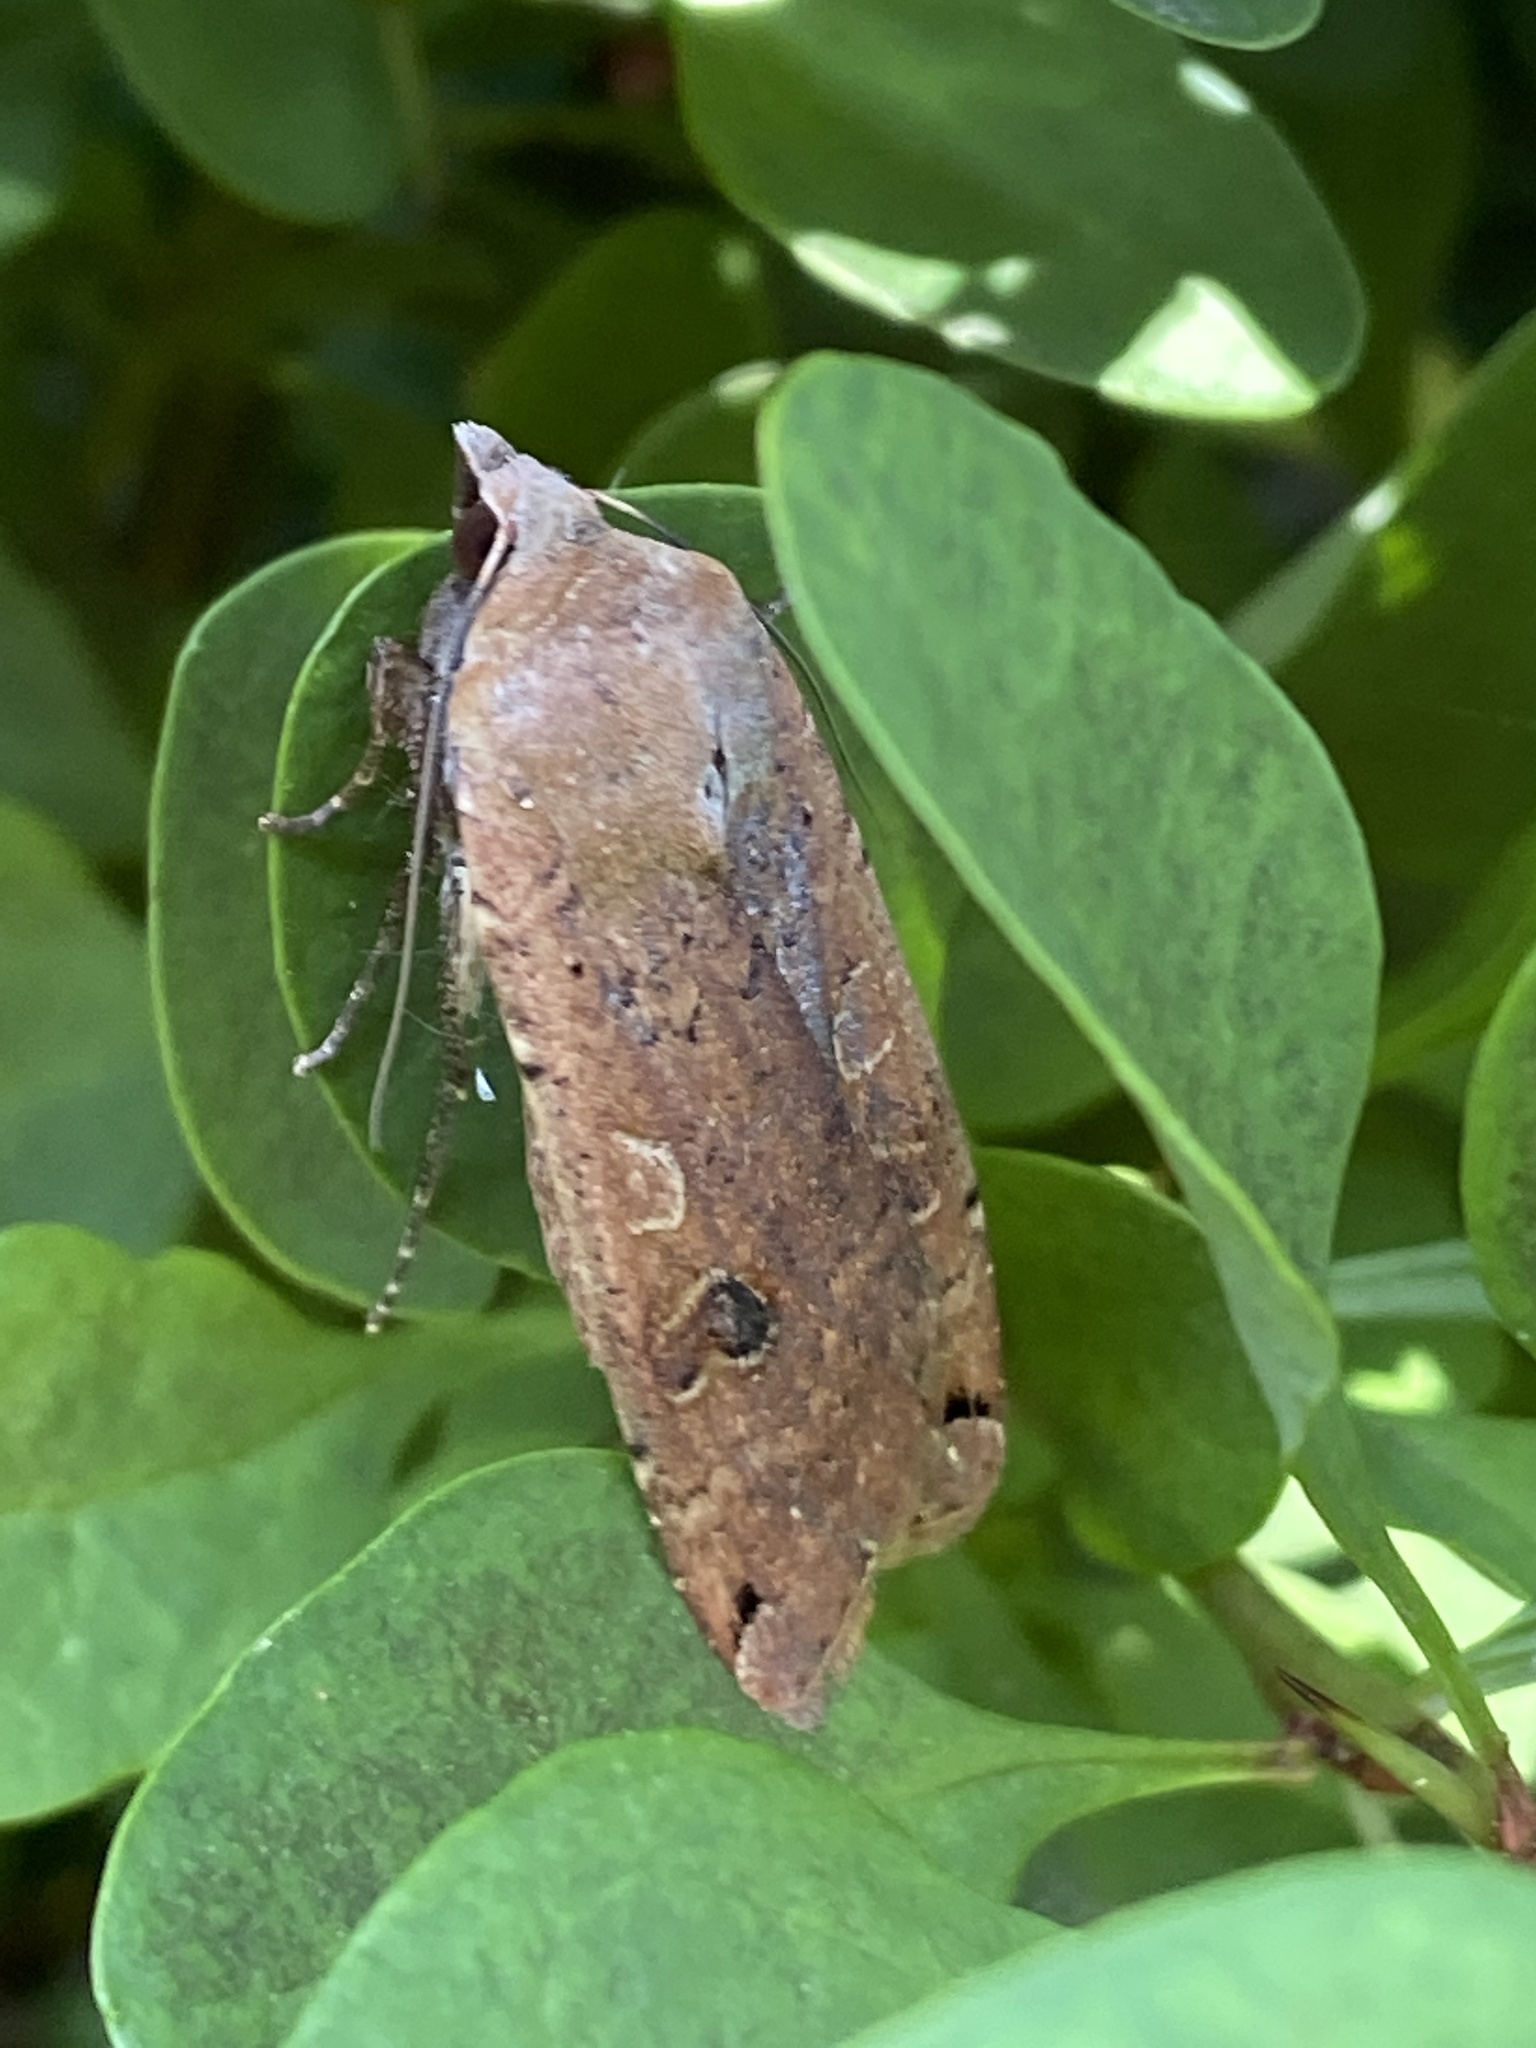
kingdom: Animalia
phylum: Arthropoda
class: Insecta
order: Lepidoptera
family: Noctuidae
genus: Noctua
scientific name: Noctua pronuba
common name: Large yellow underwing
